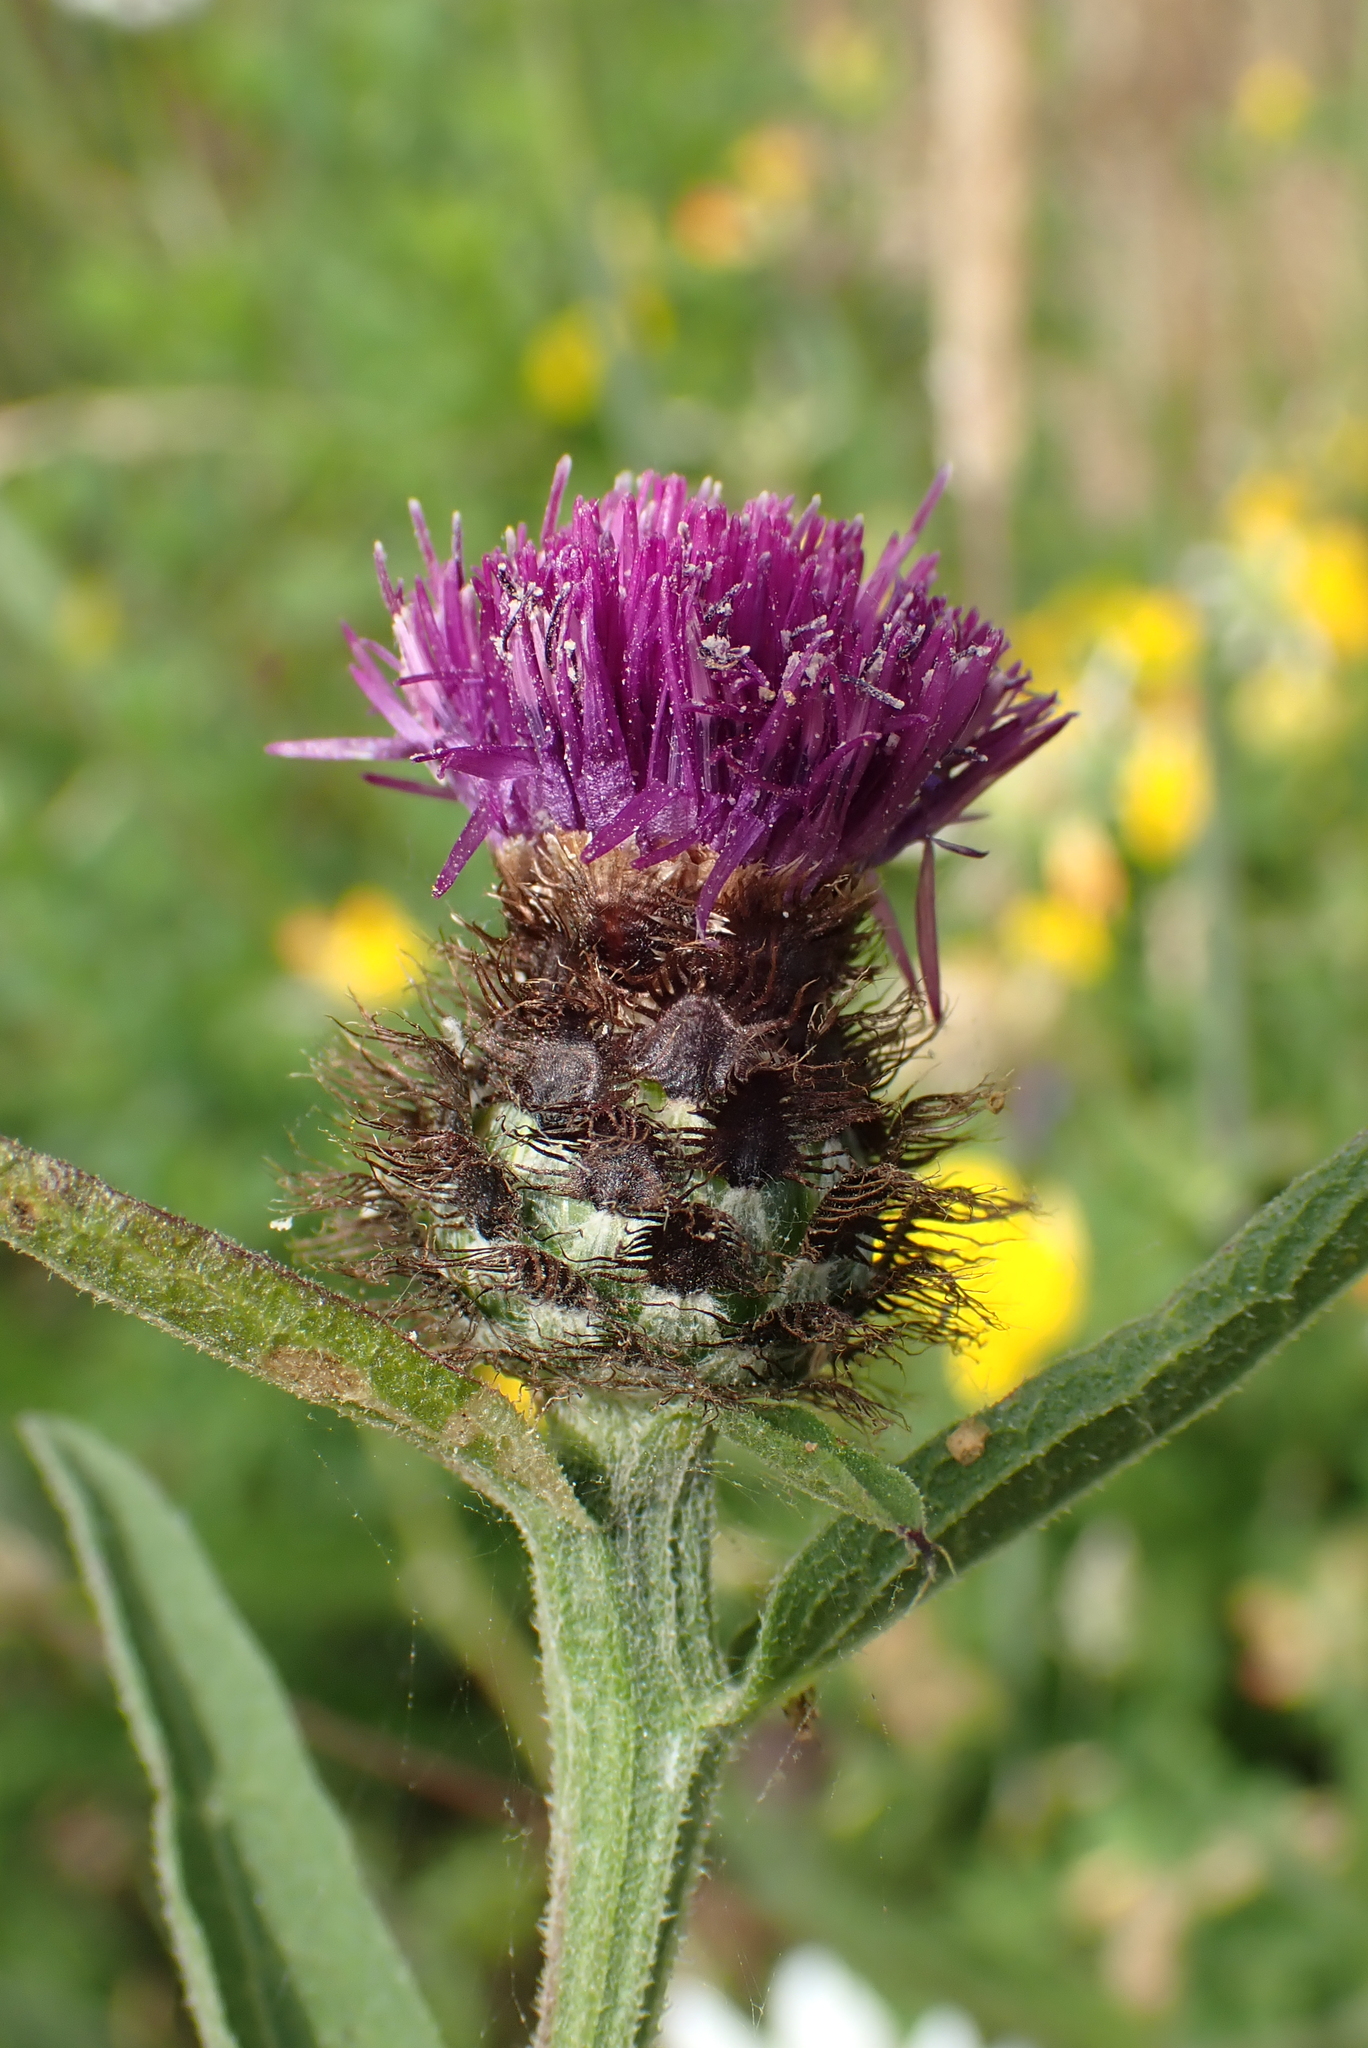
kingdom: Plantae
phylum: Tracheophyta
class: Magnoliopsida
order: Asterales
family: Asteraceae
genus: Centaurea
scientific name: Centaurea nigra
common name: Lesser knapweed
